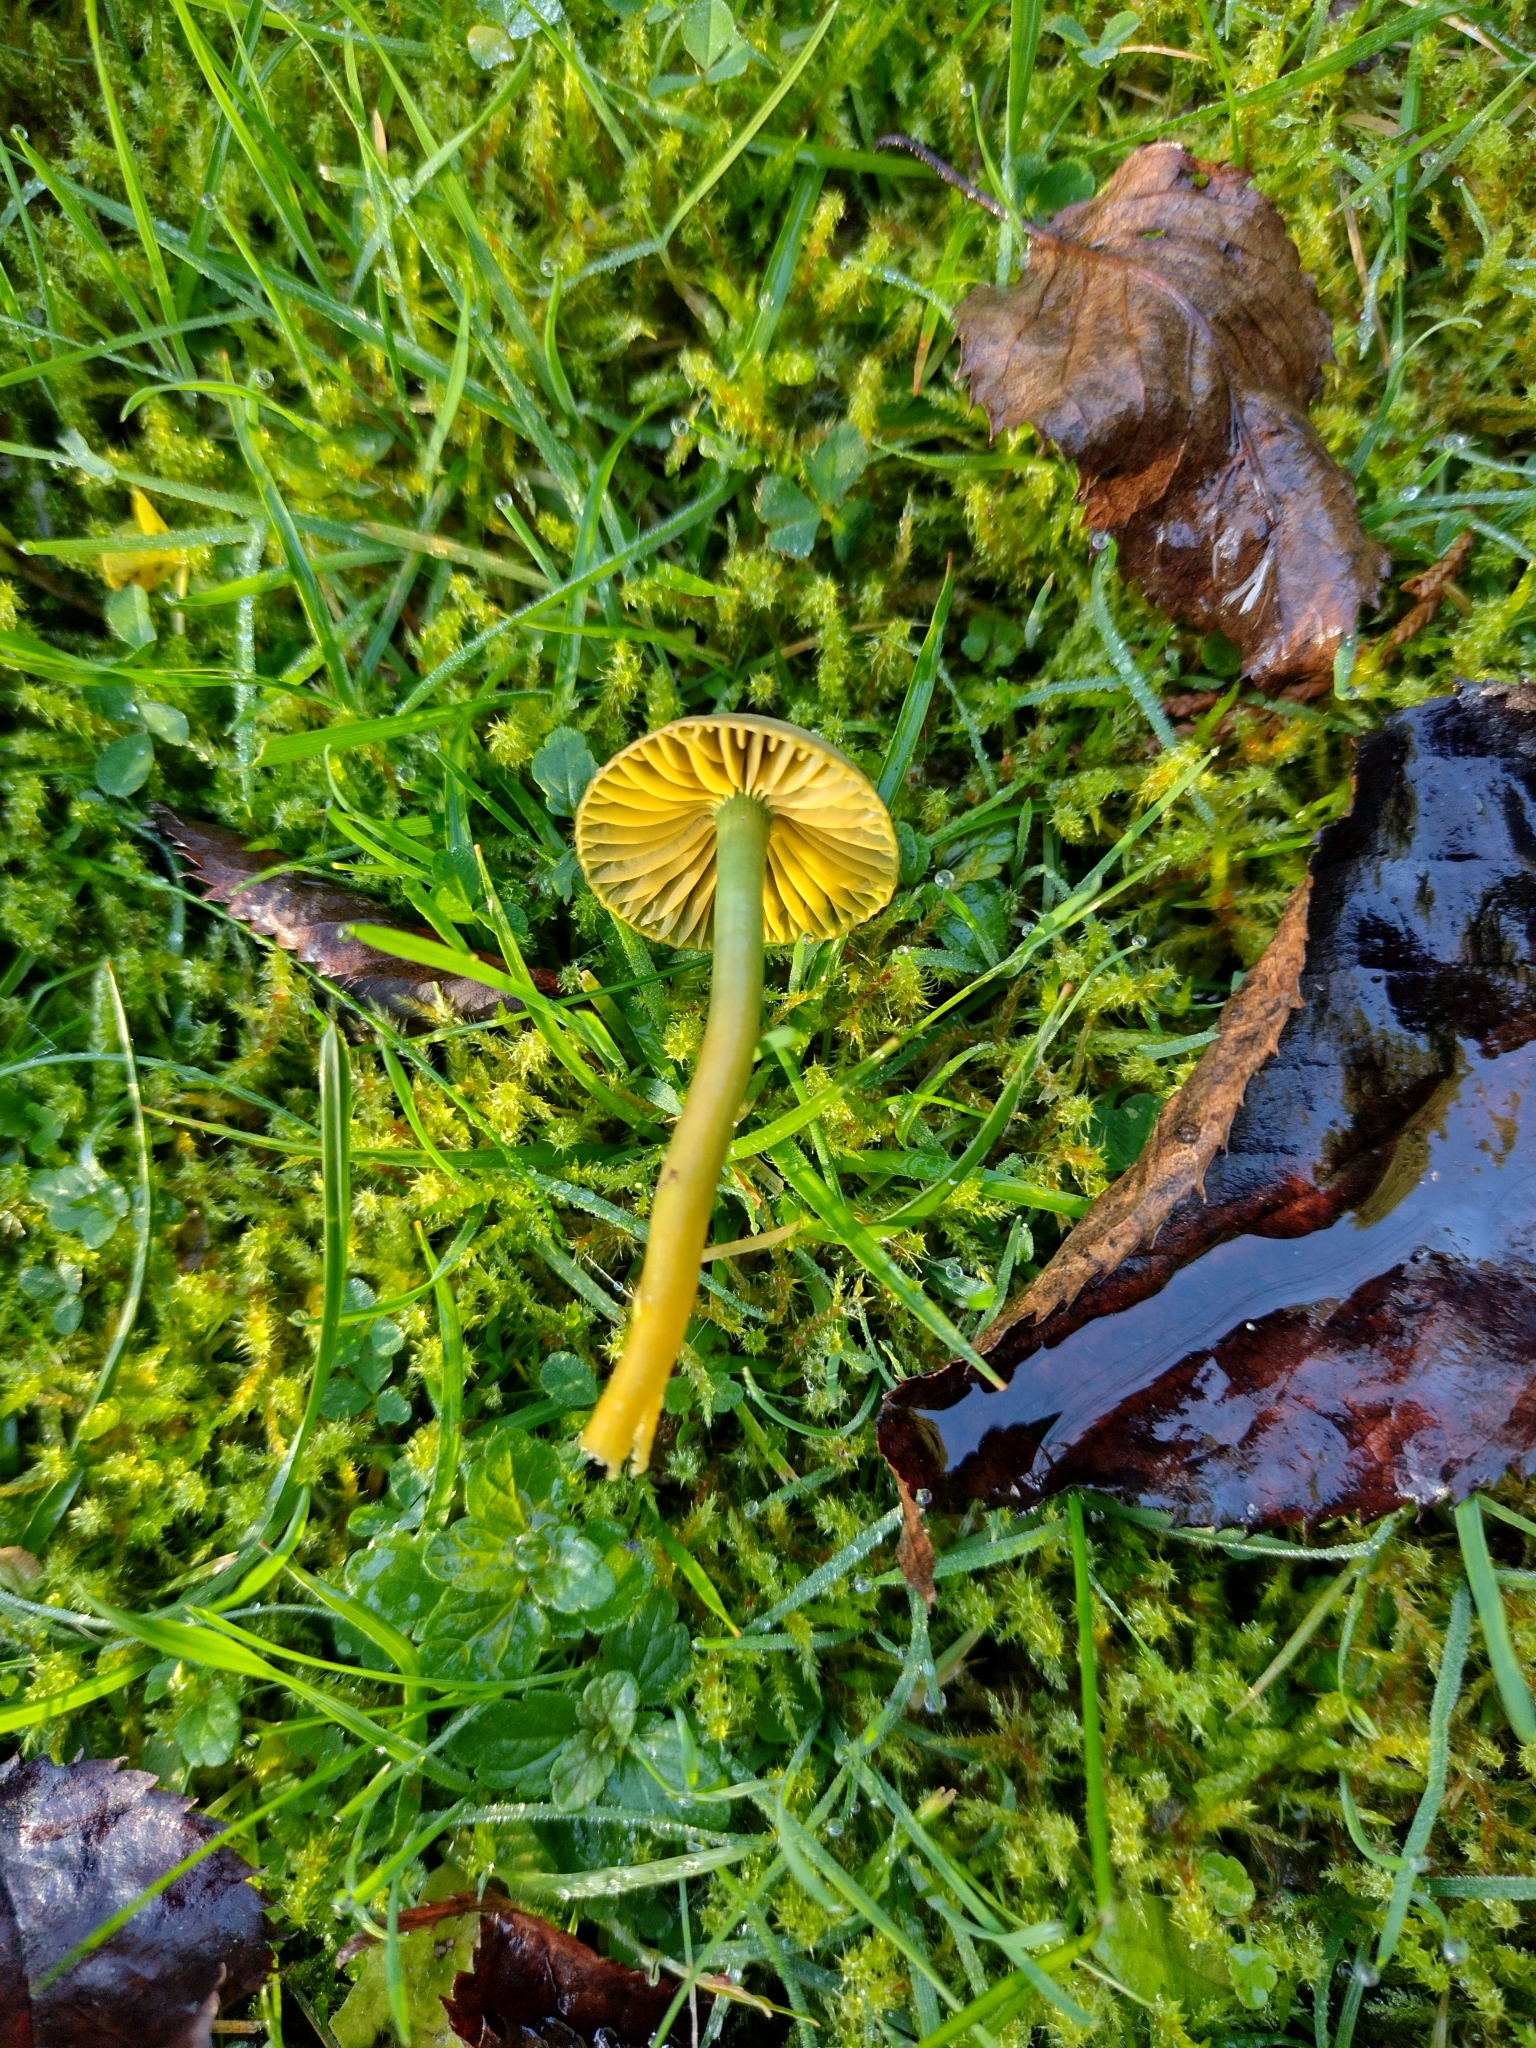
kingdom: Fungi
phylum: Basidiomycota
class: Agaricomycetes
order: Agaricales
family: Hygrophoraceae
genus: Gliophorus
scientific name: Gliophorus psittacinus
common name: Parrot wax-cap
